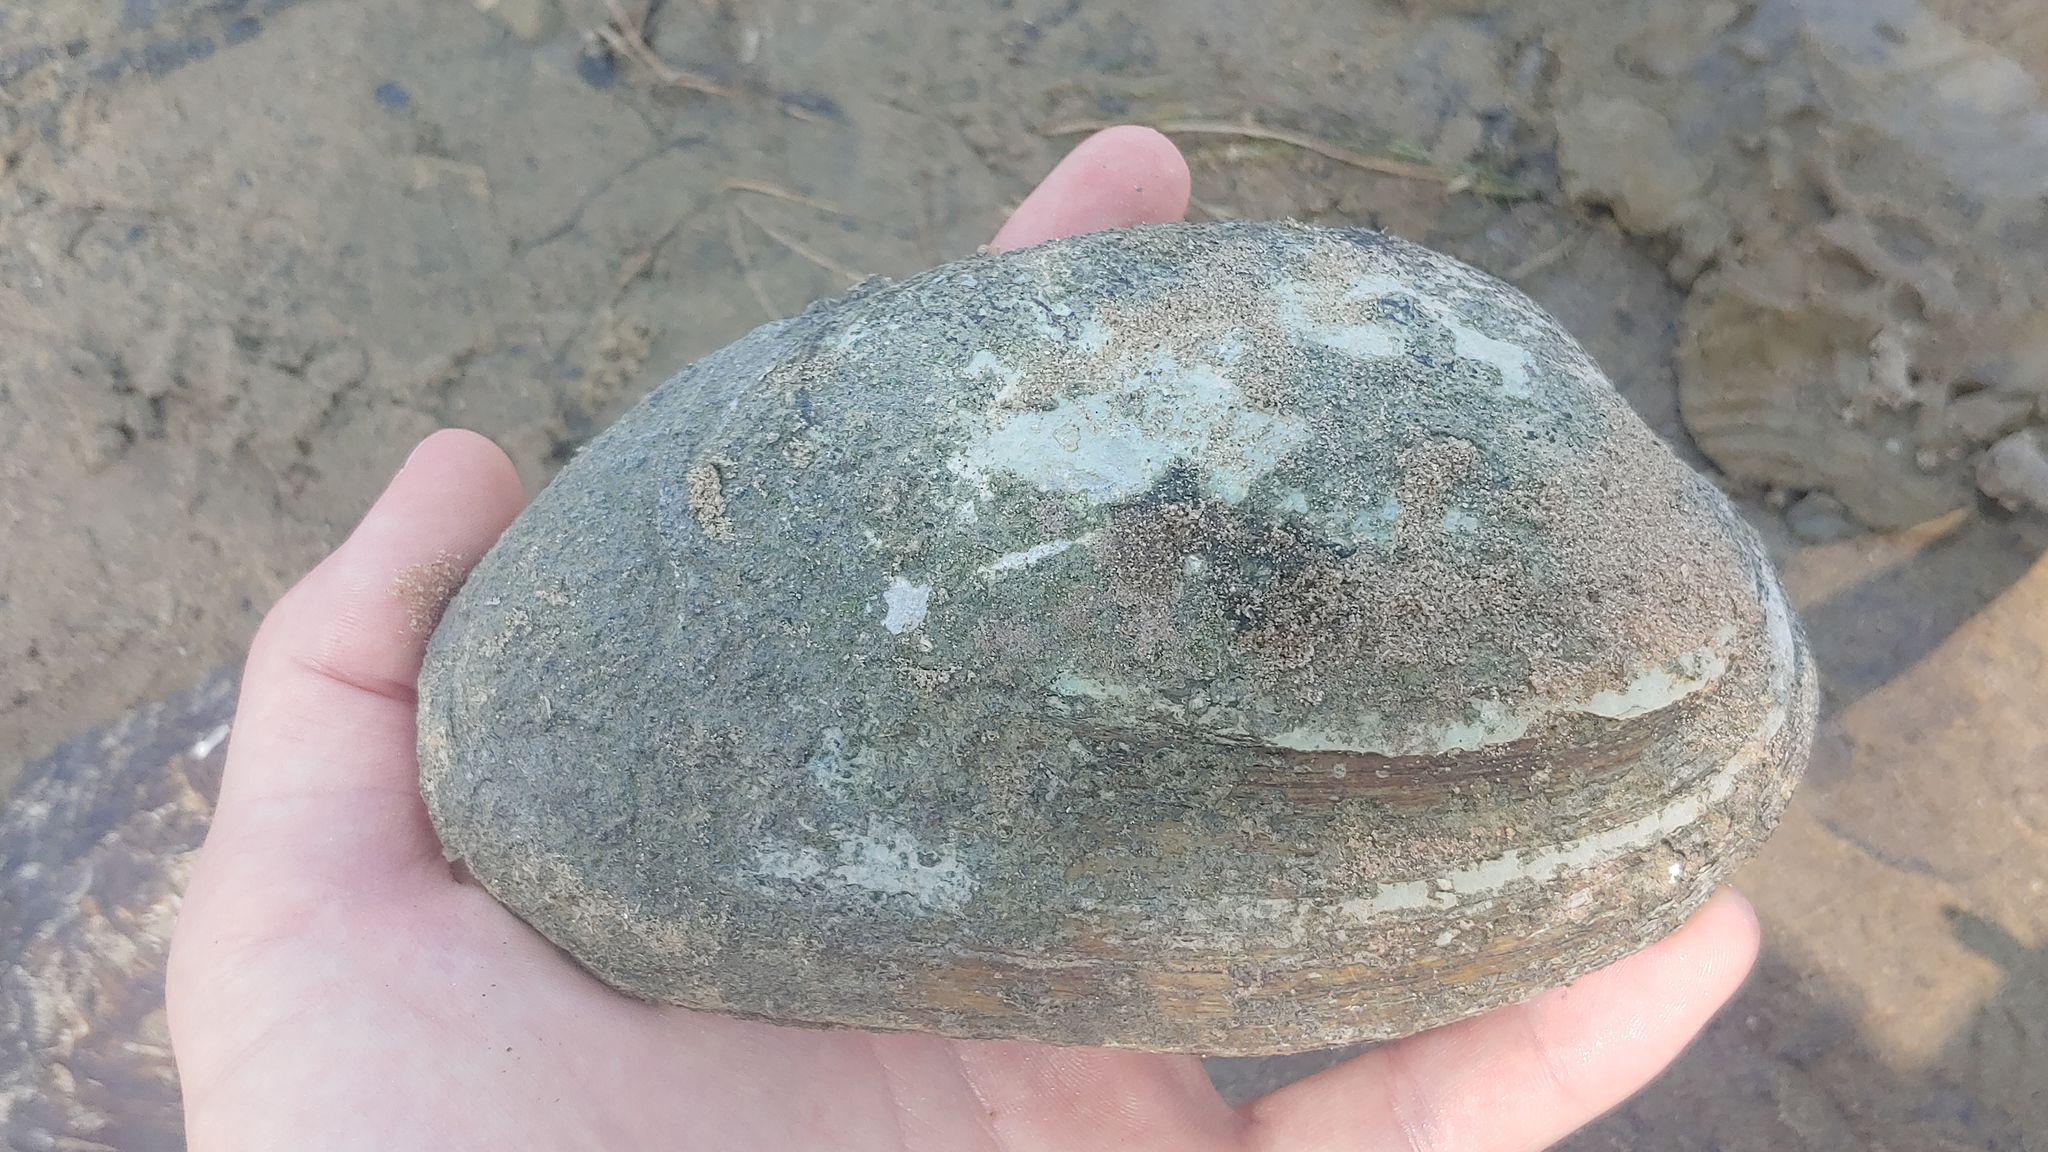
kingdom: Animalia
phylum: Mollusca
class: Bivalvia
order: Unionida
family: Unionidae
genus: Ortmanniana
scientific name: Ortmanniana ligamentina
